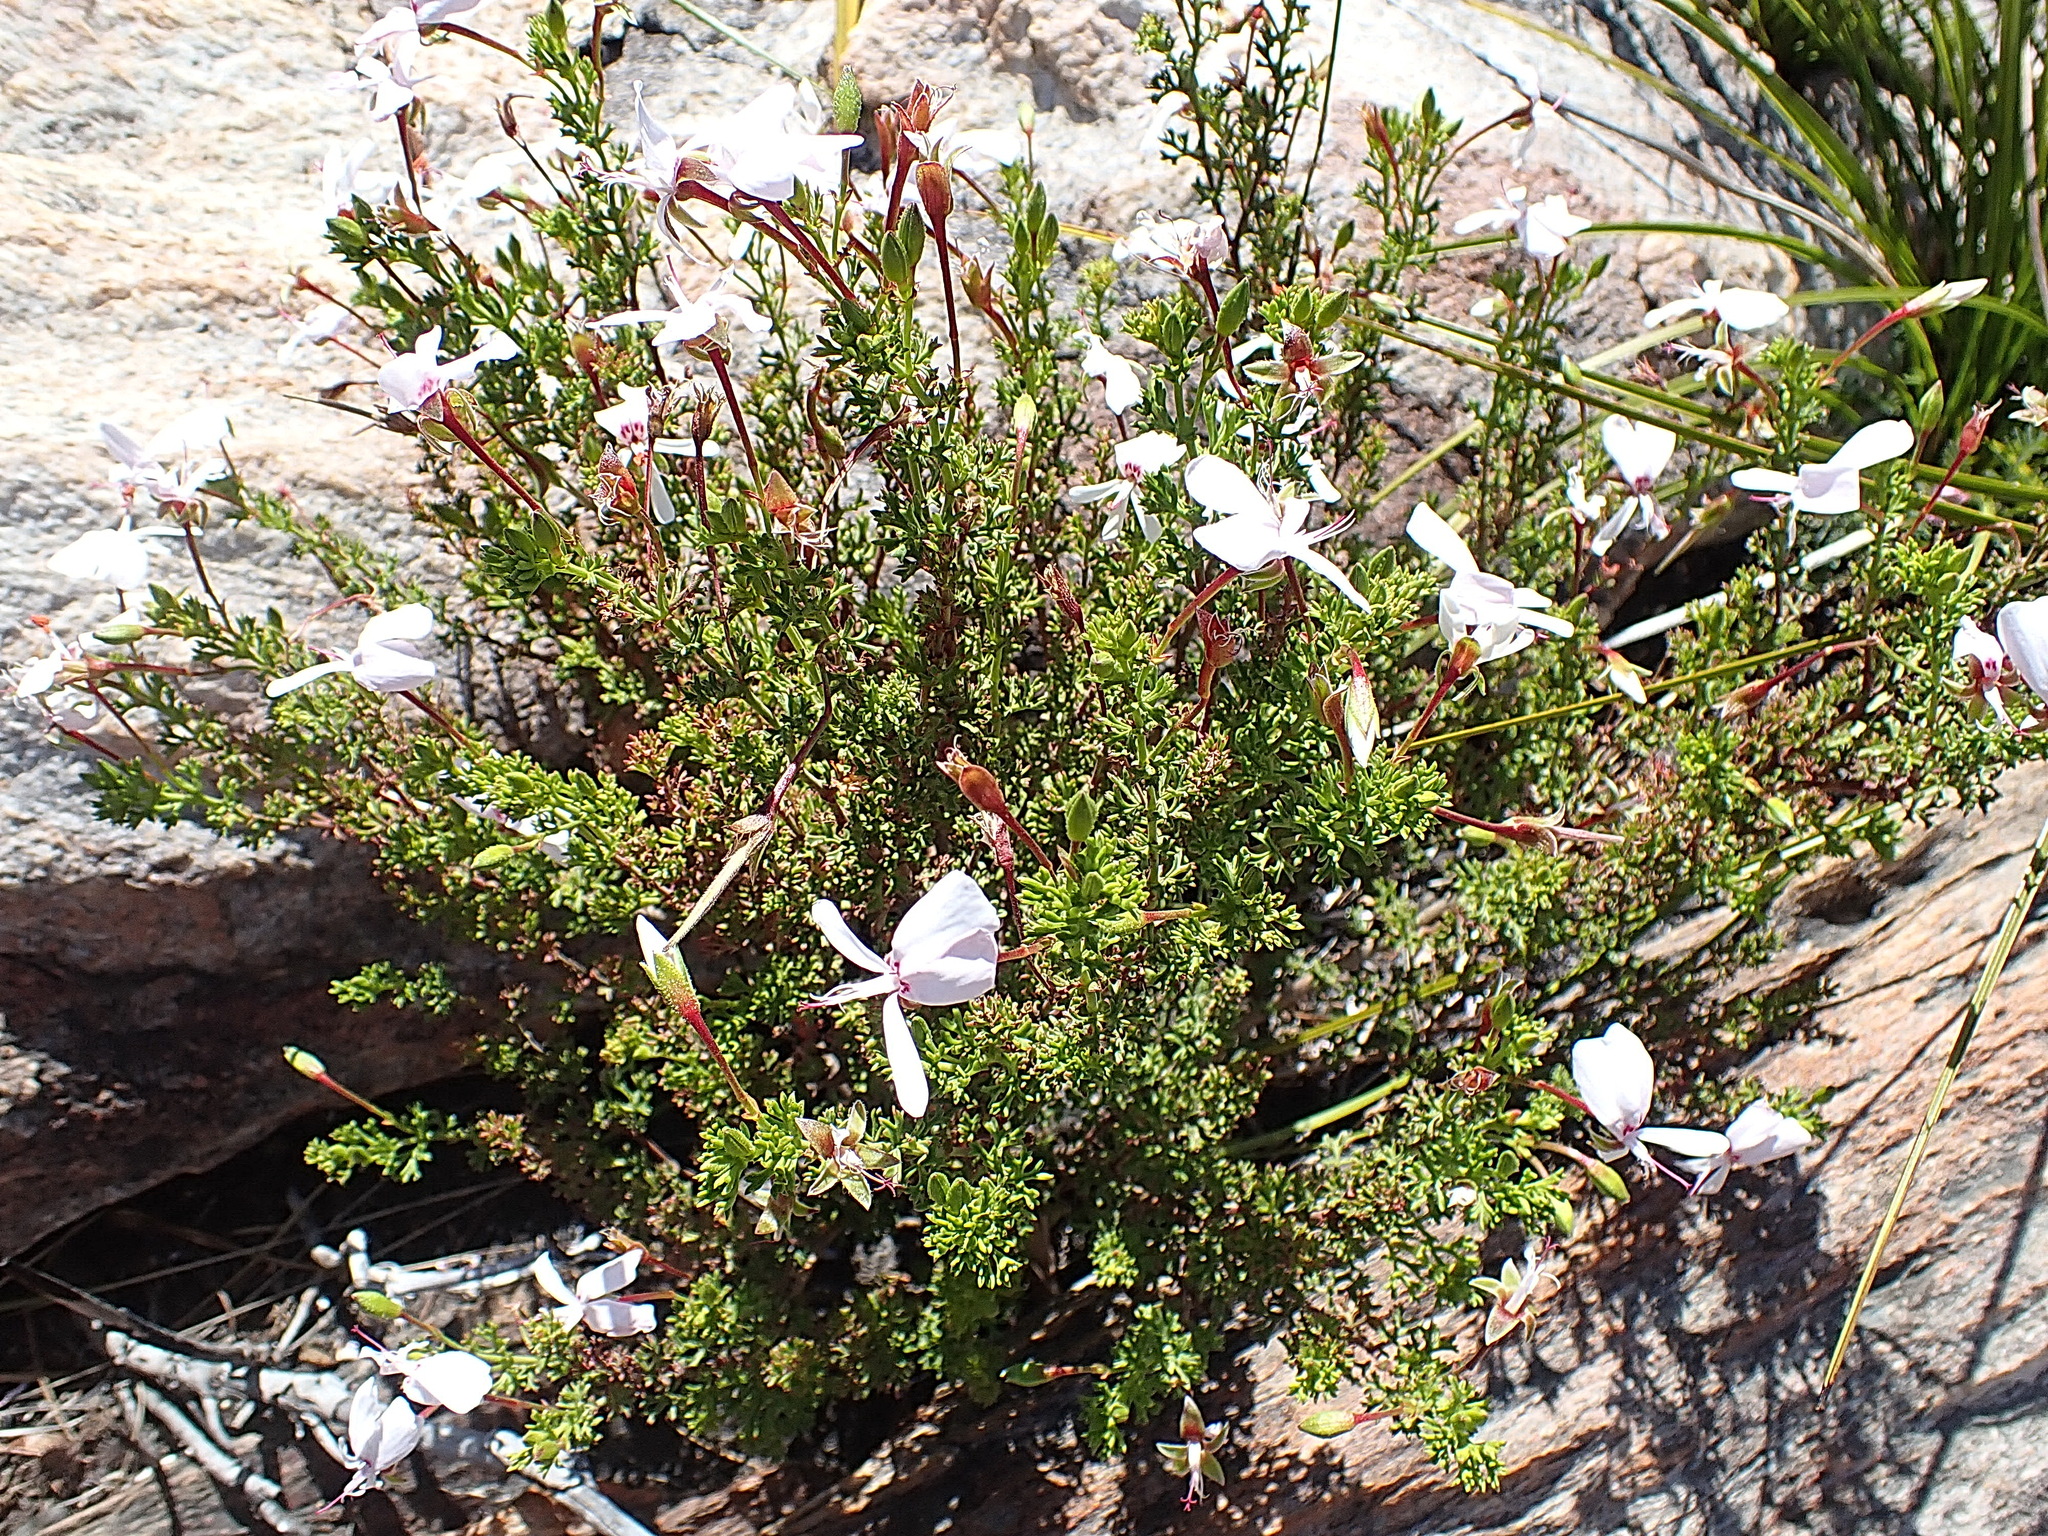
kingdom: Plantae
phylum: Tracheophyta
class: Magnoliopsida
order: Geraniales
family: Geraniaceae
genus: Pelargonium
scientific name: Pelargonium fruticosum
